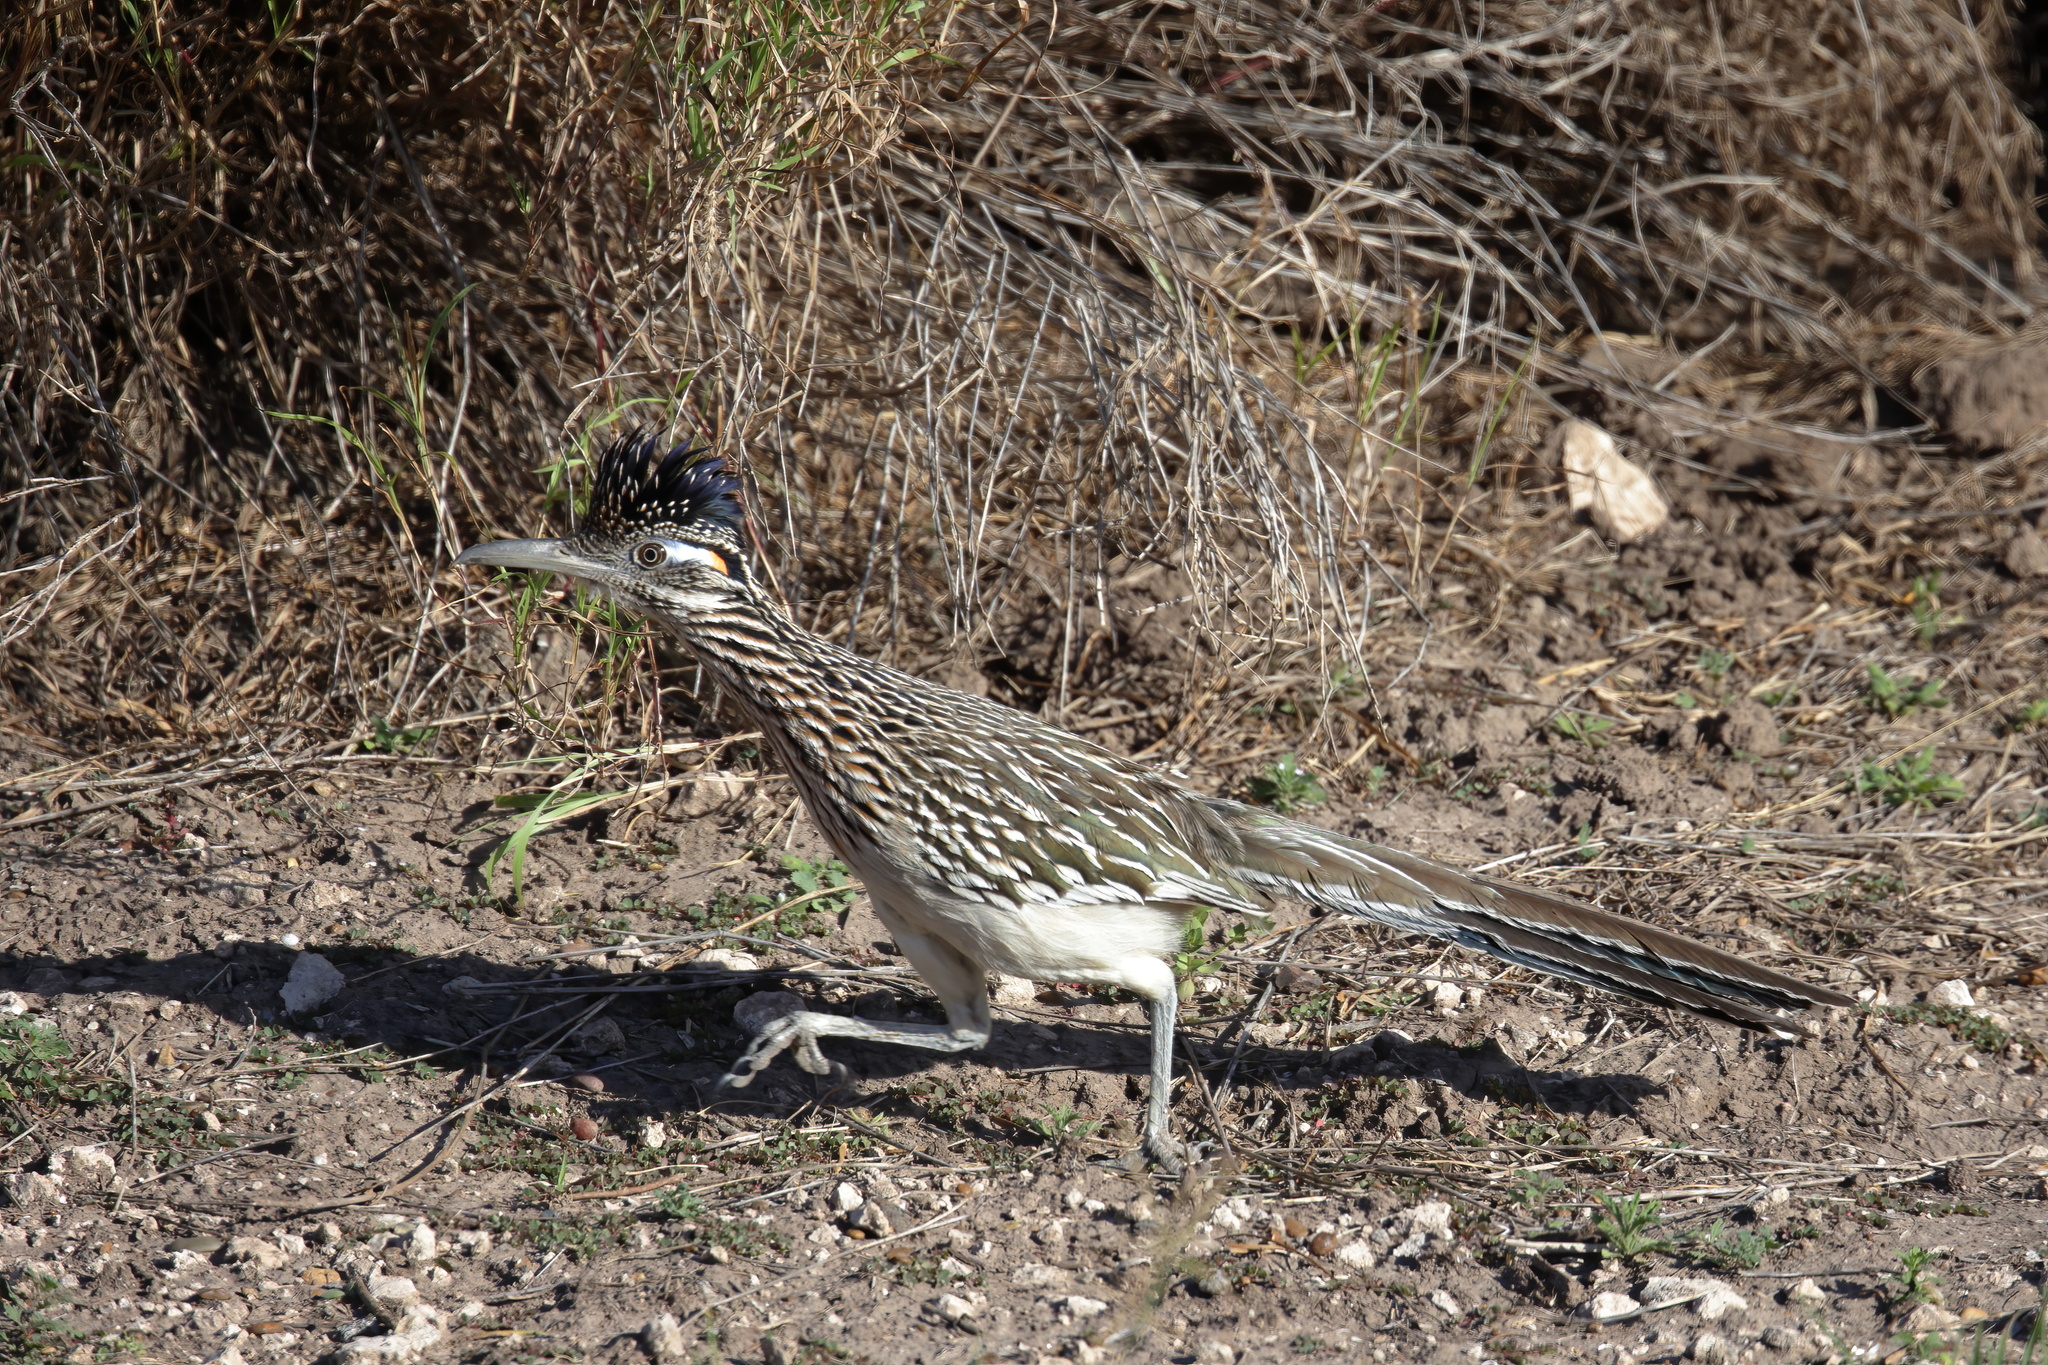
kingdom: Animalia
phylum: Chordata
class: Aves
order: Cuculiformes
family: Cuculidae
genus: Geococcyx
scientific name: Geococcyx californianus
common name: Greater roadrunner
